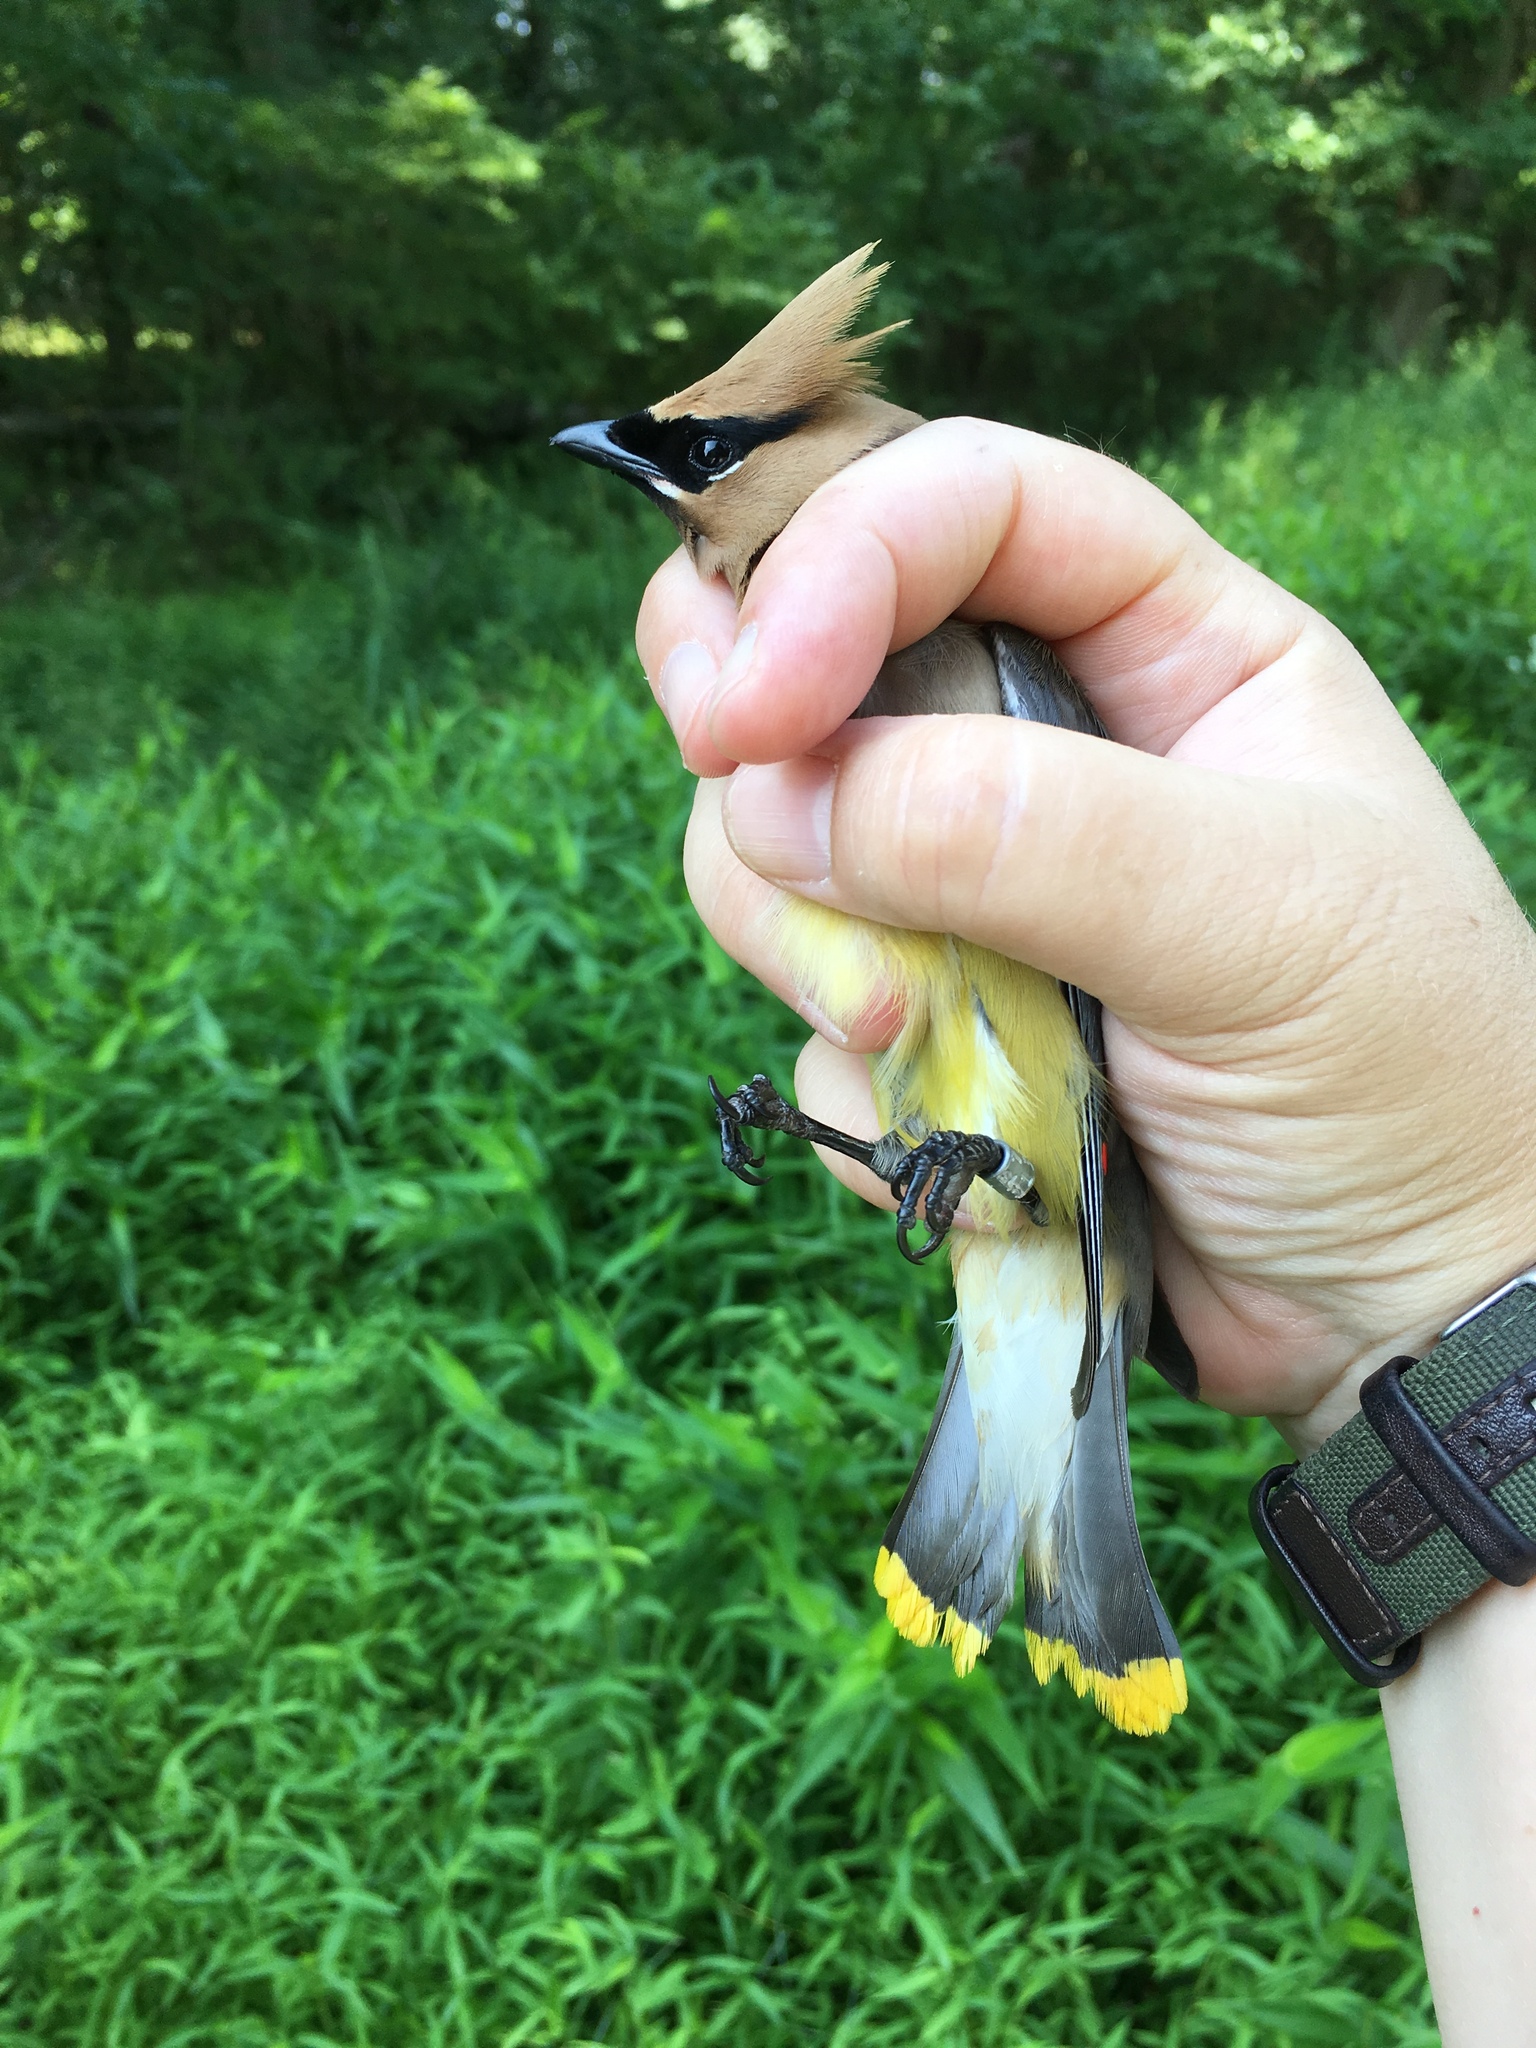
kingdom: Animalia
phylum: Chordata
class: Aves
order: Passeriformes
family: Bombycillidae
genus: Bombycilla
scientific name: Bombycilla cedrorum
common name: Cedar waxwing
